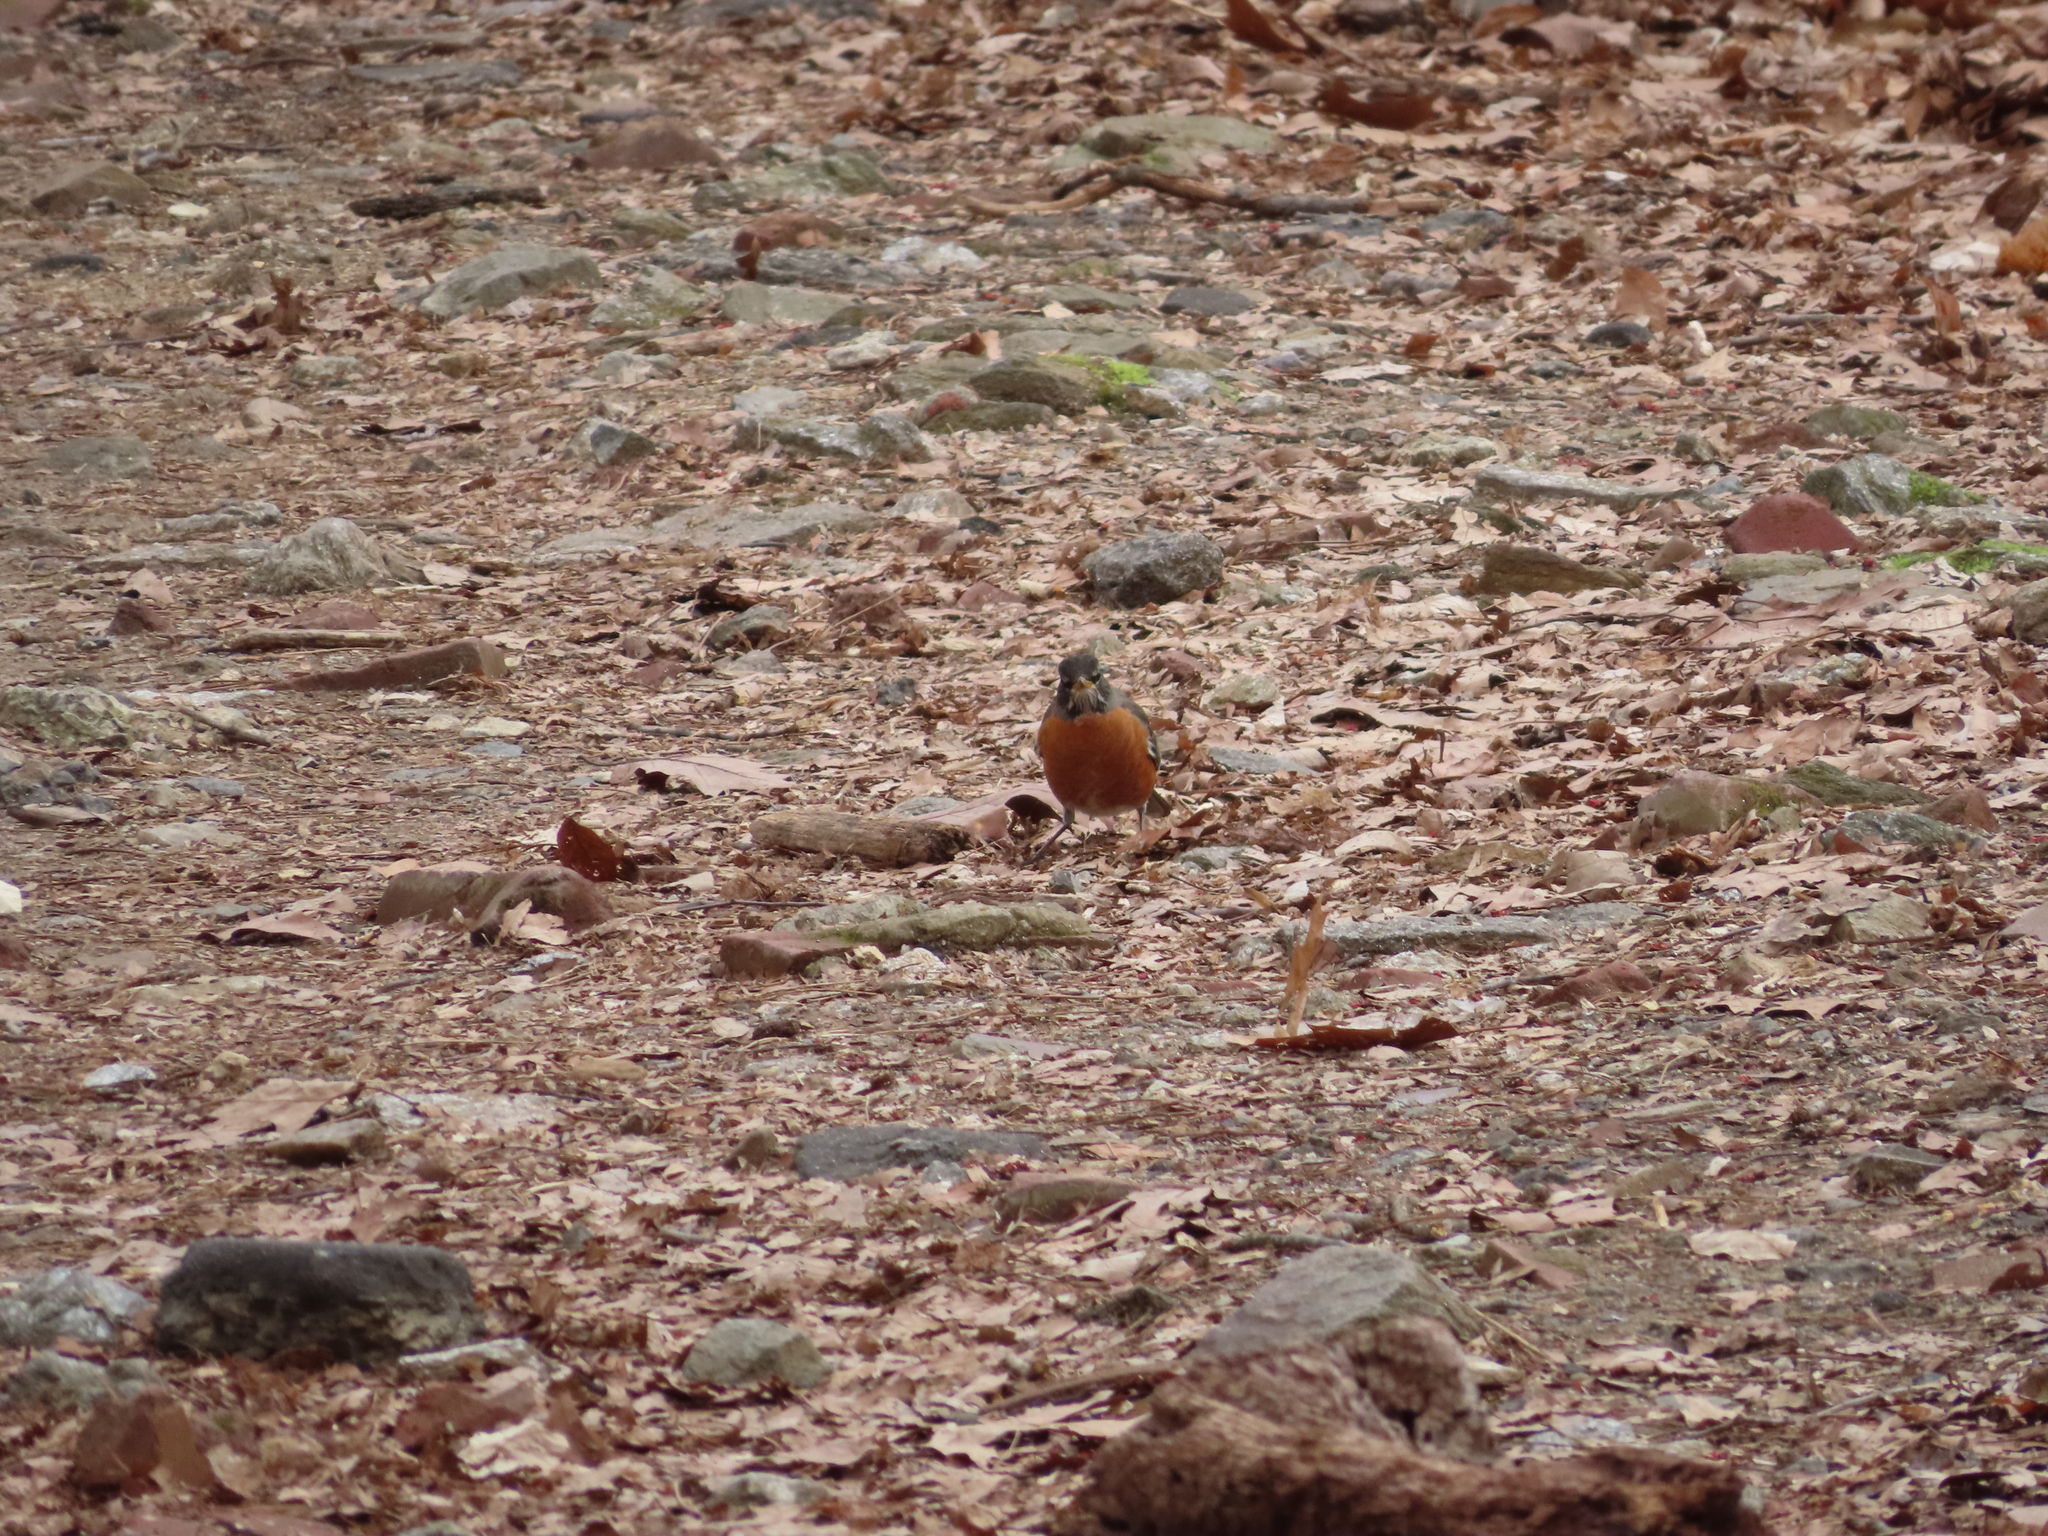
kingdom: Animalia
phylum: Chordata
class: Aves
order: Passeriformes
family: Turdidae
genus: Turdus
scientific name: Turdus migratorius
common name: American robin
